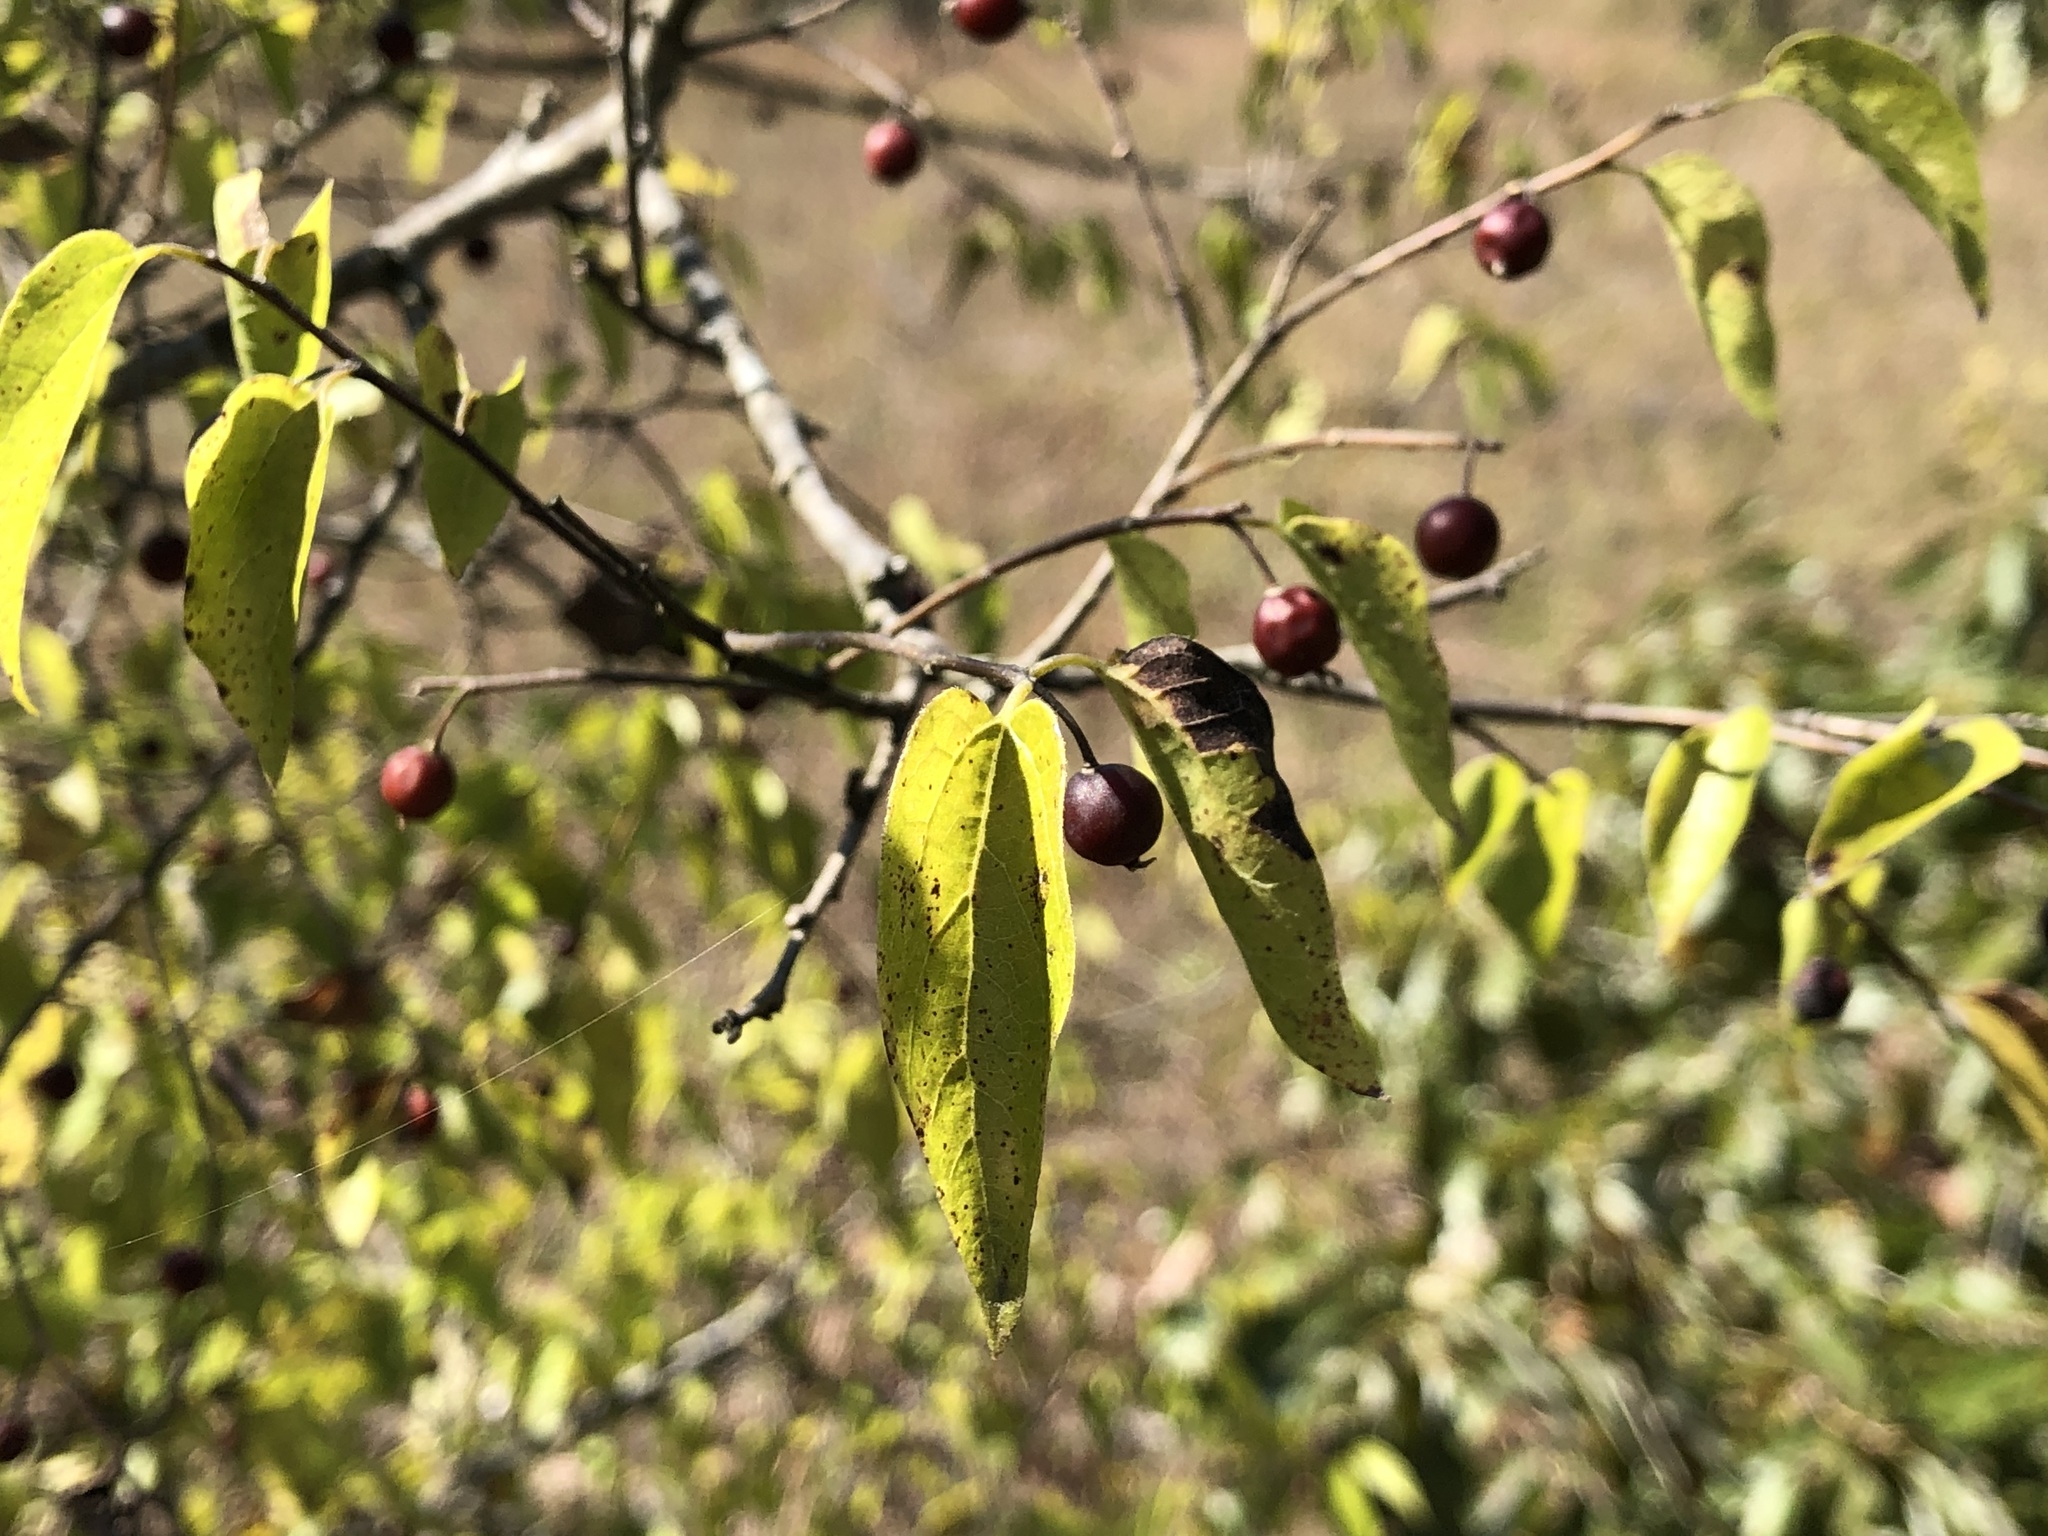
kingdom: Plantae
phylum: Tracheophyta
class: Magnoliopsida
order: Rosales
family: Cannabaceae
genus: Celtis
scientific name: Celtis occidentalis
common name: Common hackberry
